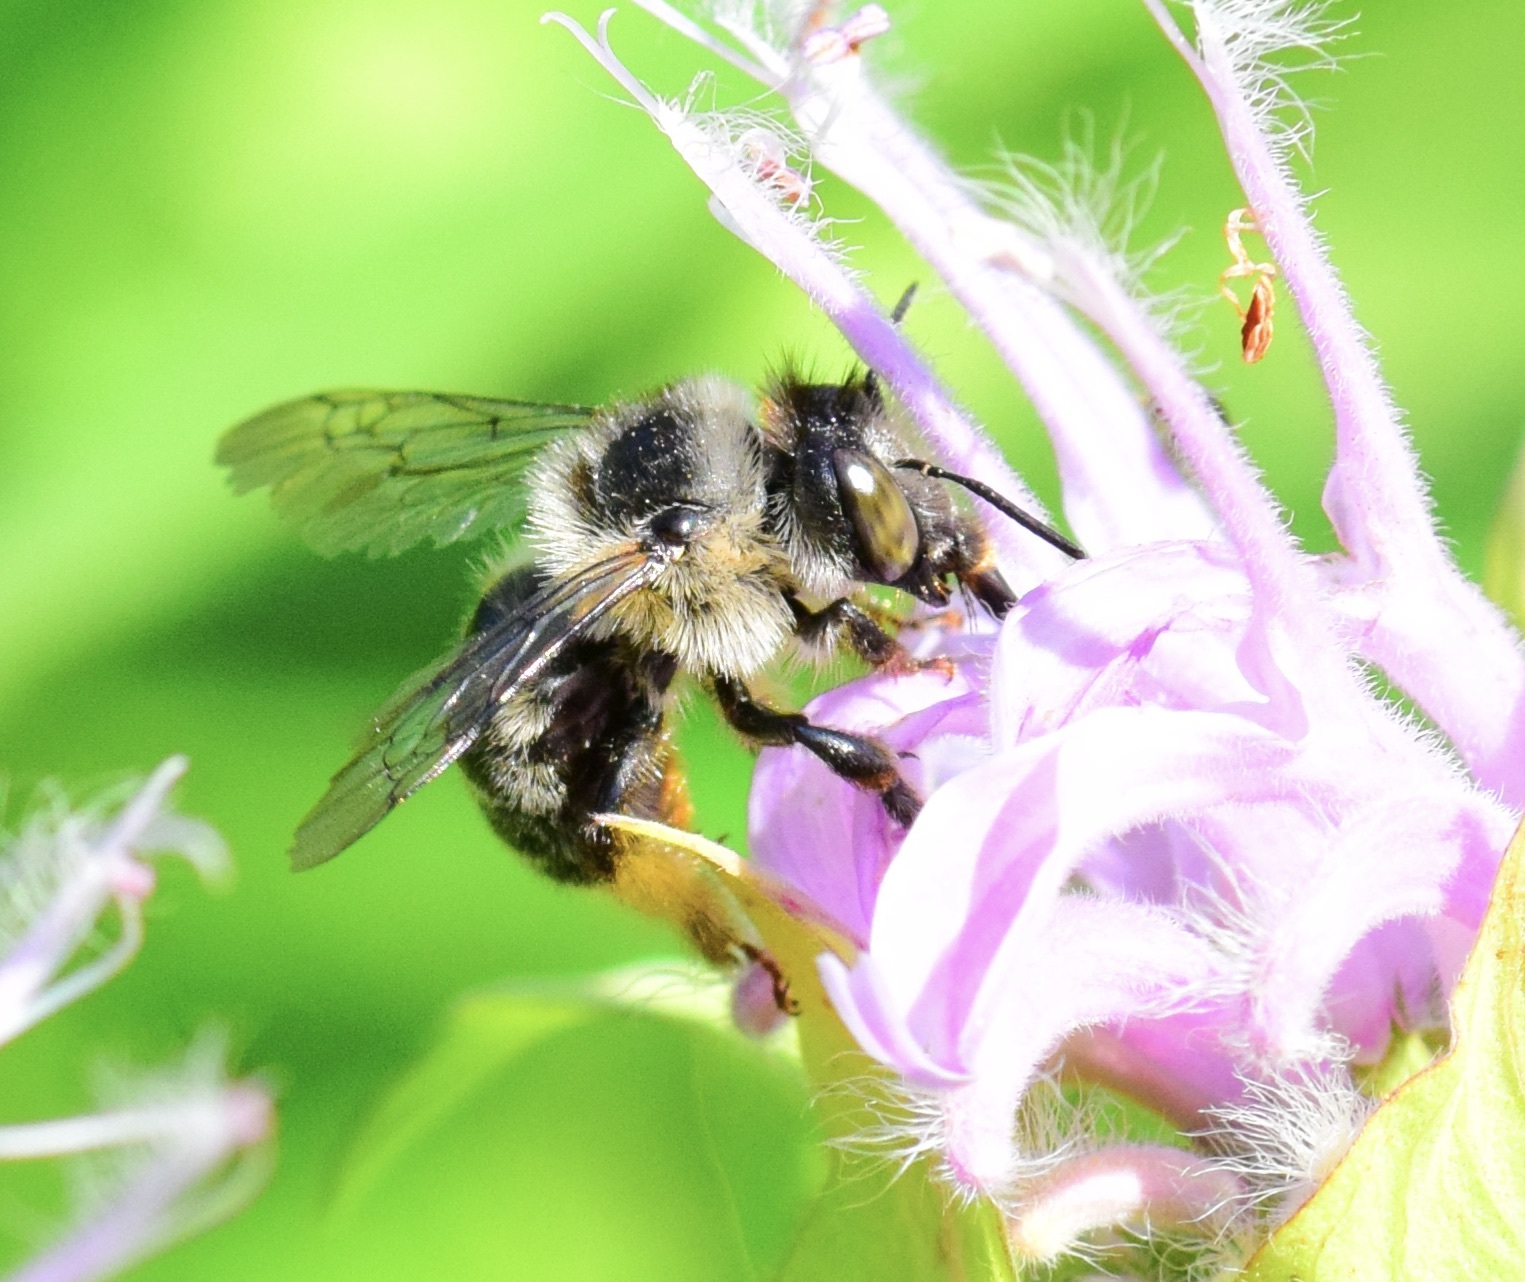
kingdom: Animalia
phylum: Arthropoda
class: Insecta
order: Hymenoptera
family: Apidae
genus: Anthophora
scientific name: Anthophora terminalis
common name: Orange-tipped wood-digger bee
